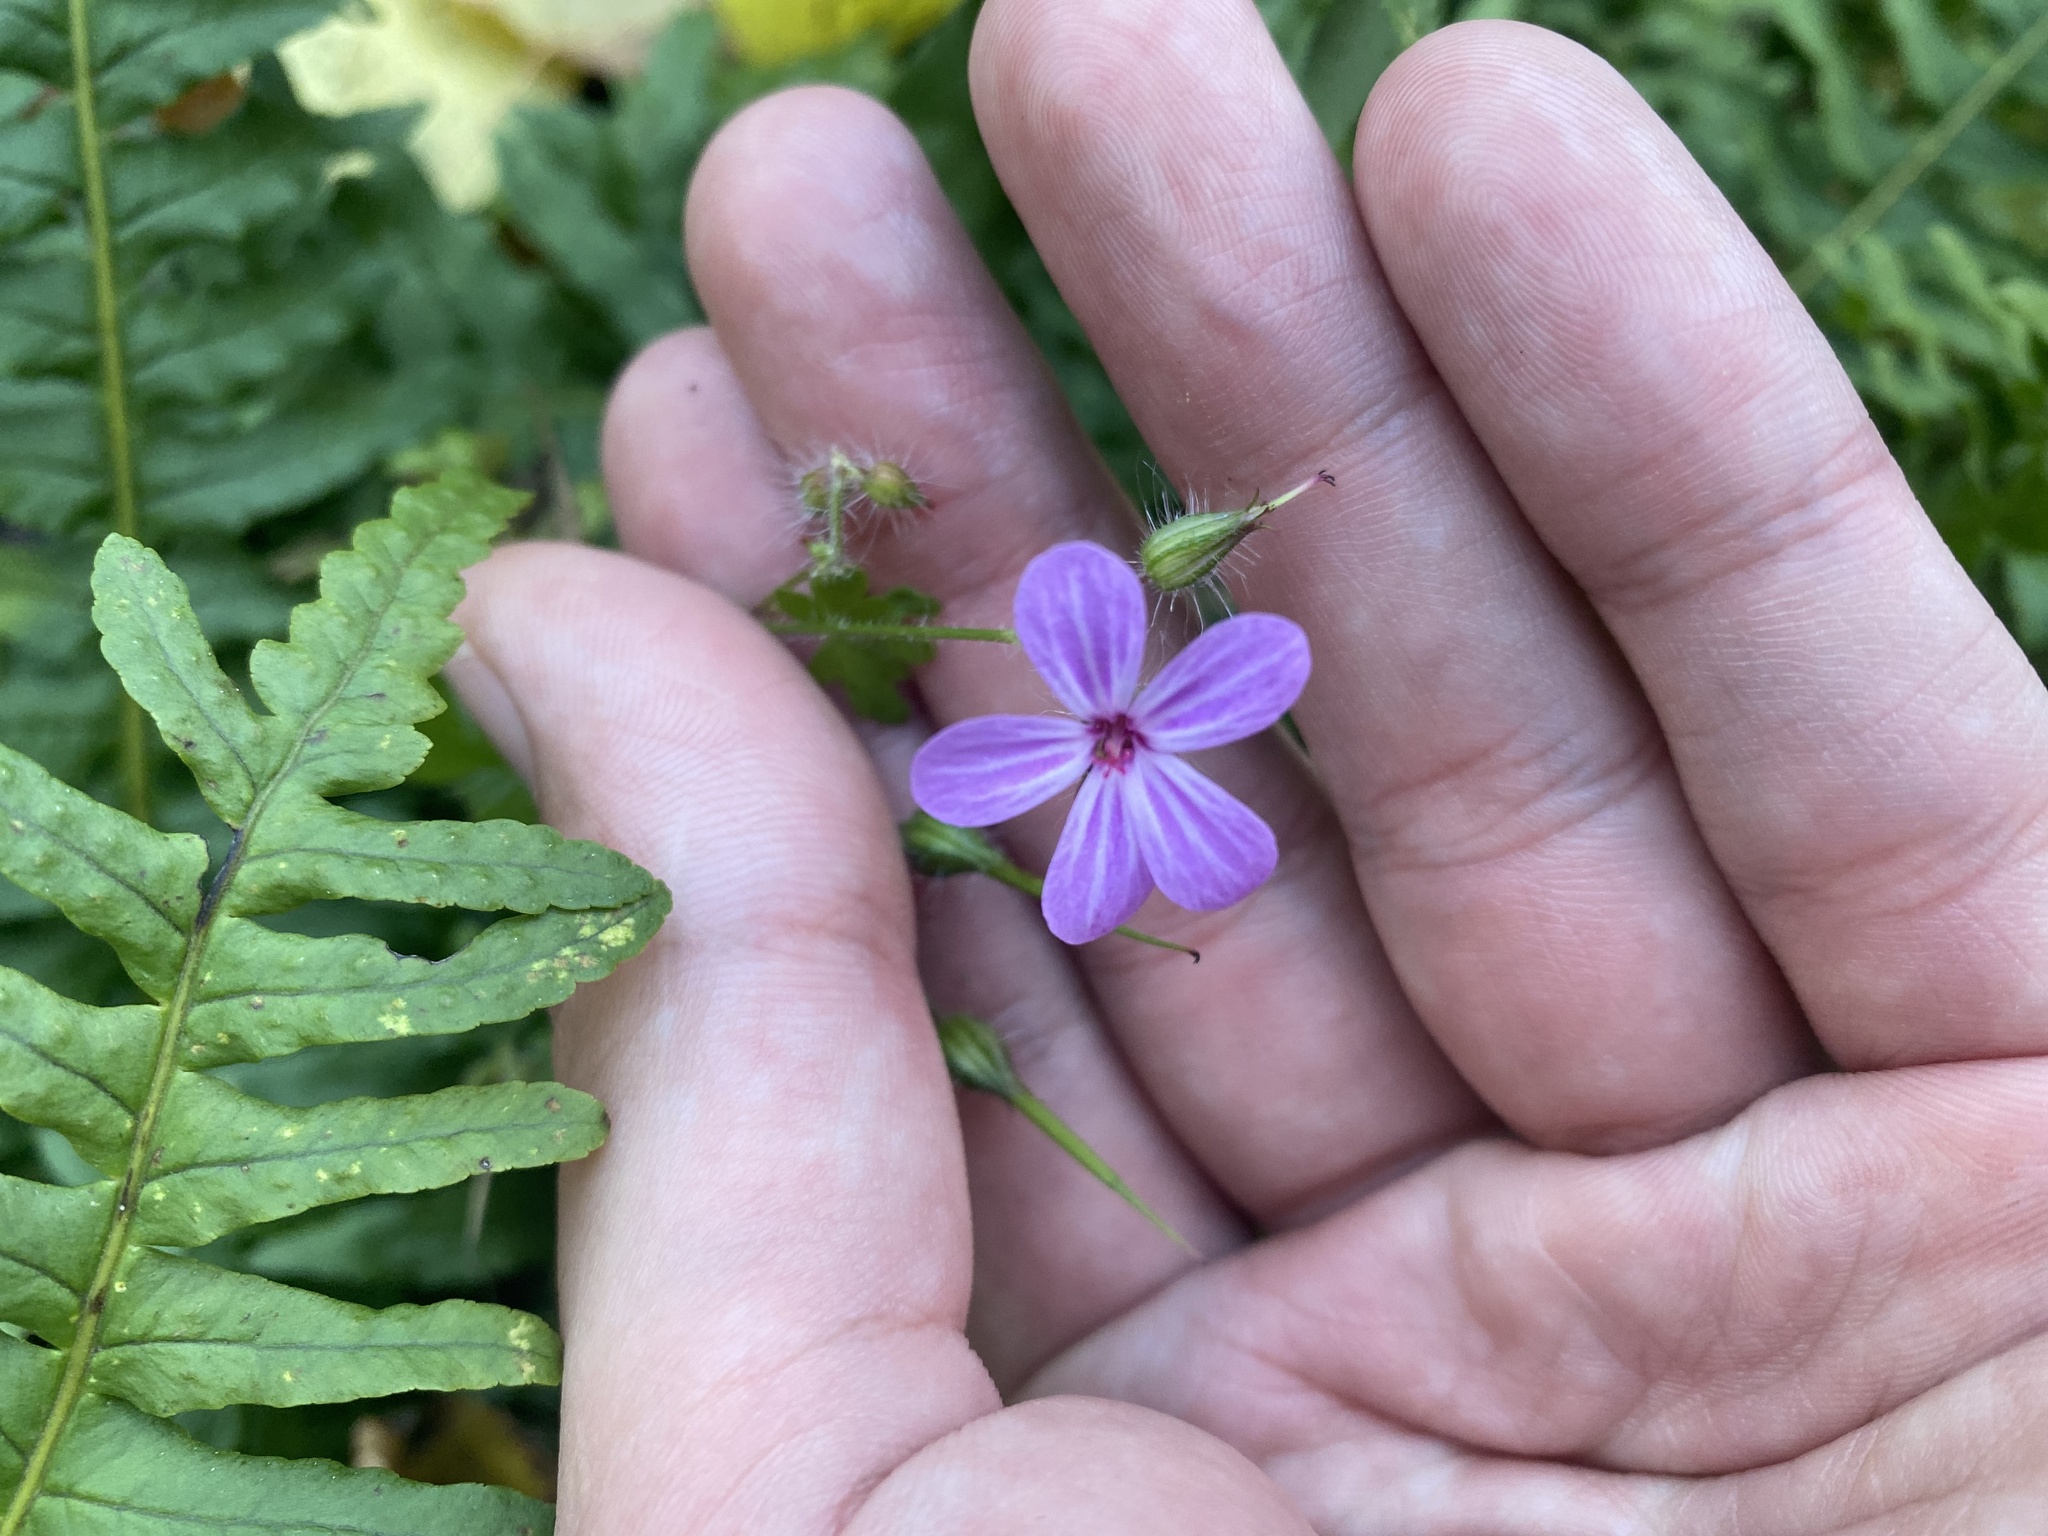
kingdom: Plantae
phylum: Tracheophyta
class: Magnoliopsida
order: Geraniales
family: Geraniaceae
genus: Geranium
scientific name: Geranium robertianum
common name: Herb-robert
